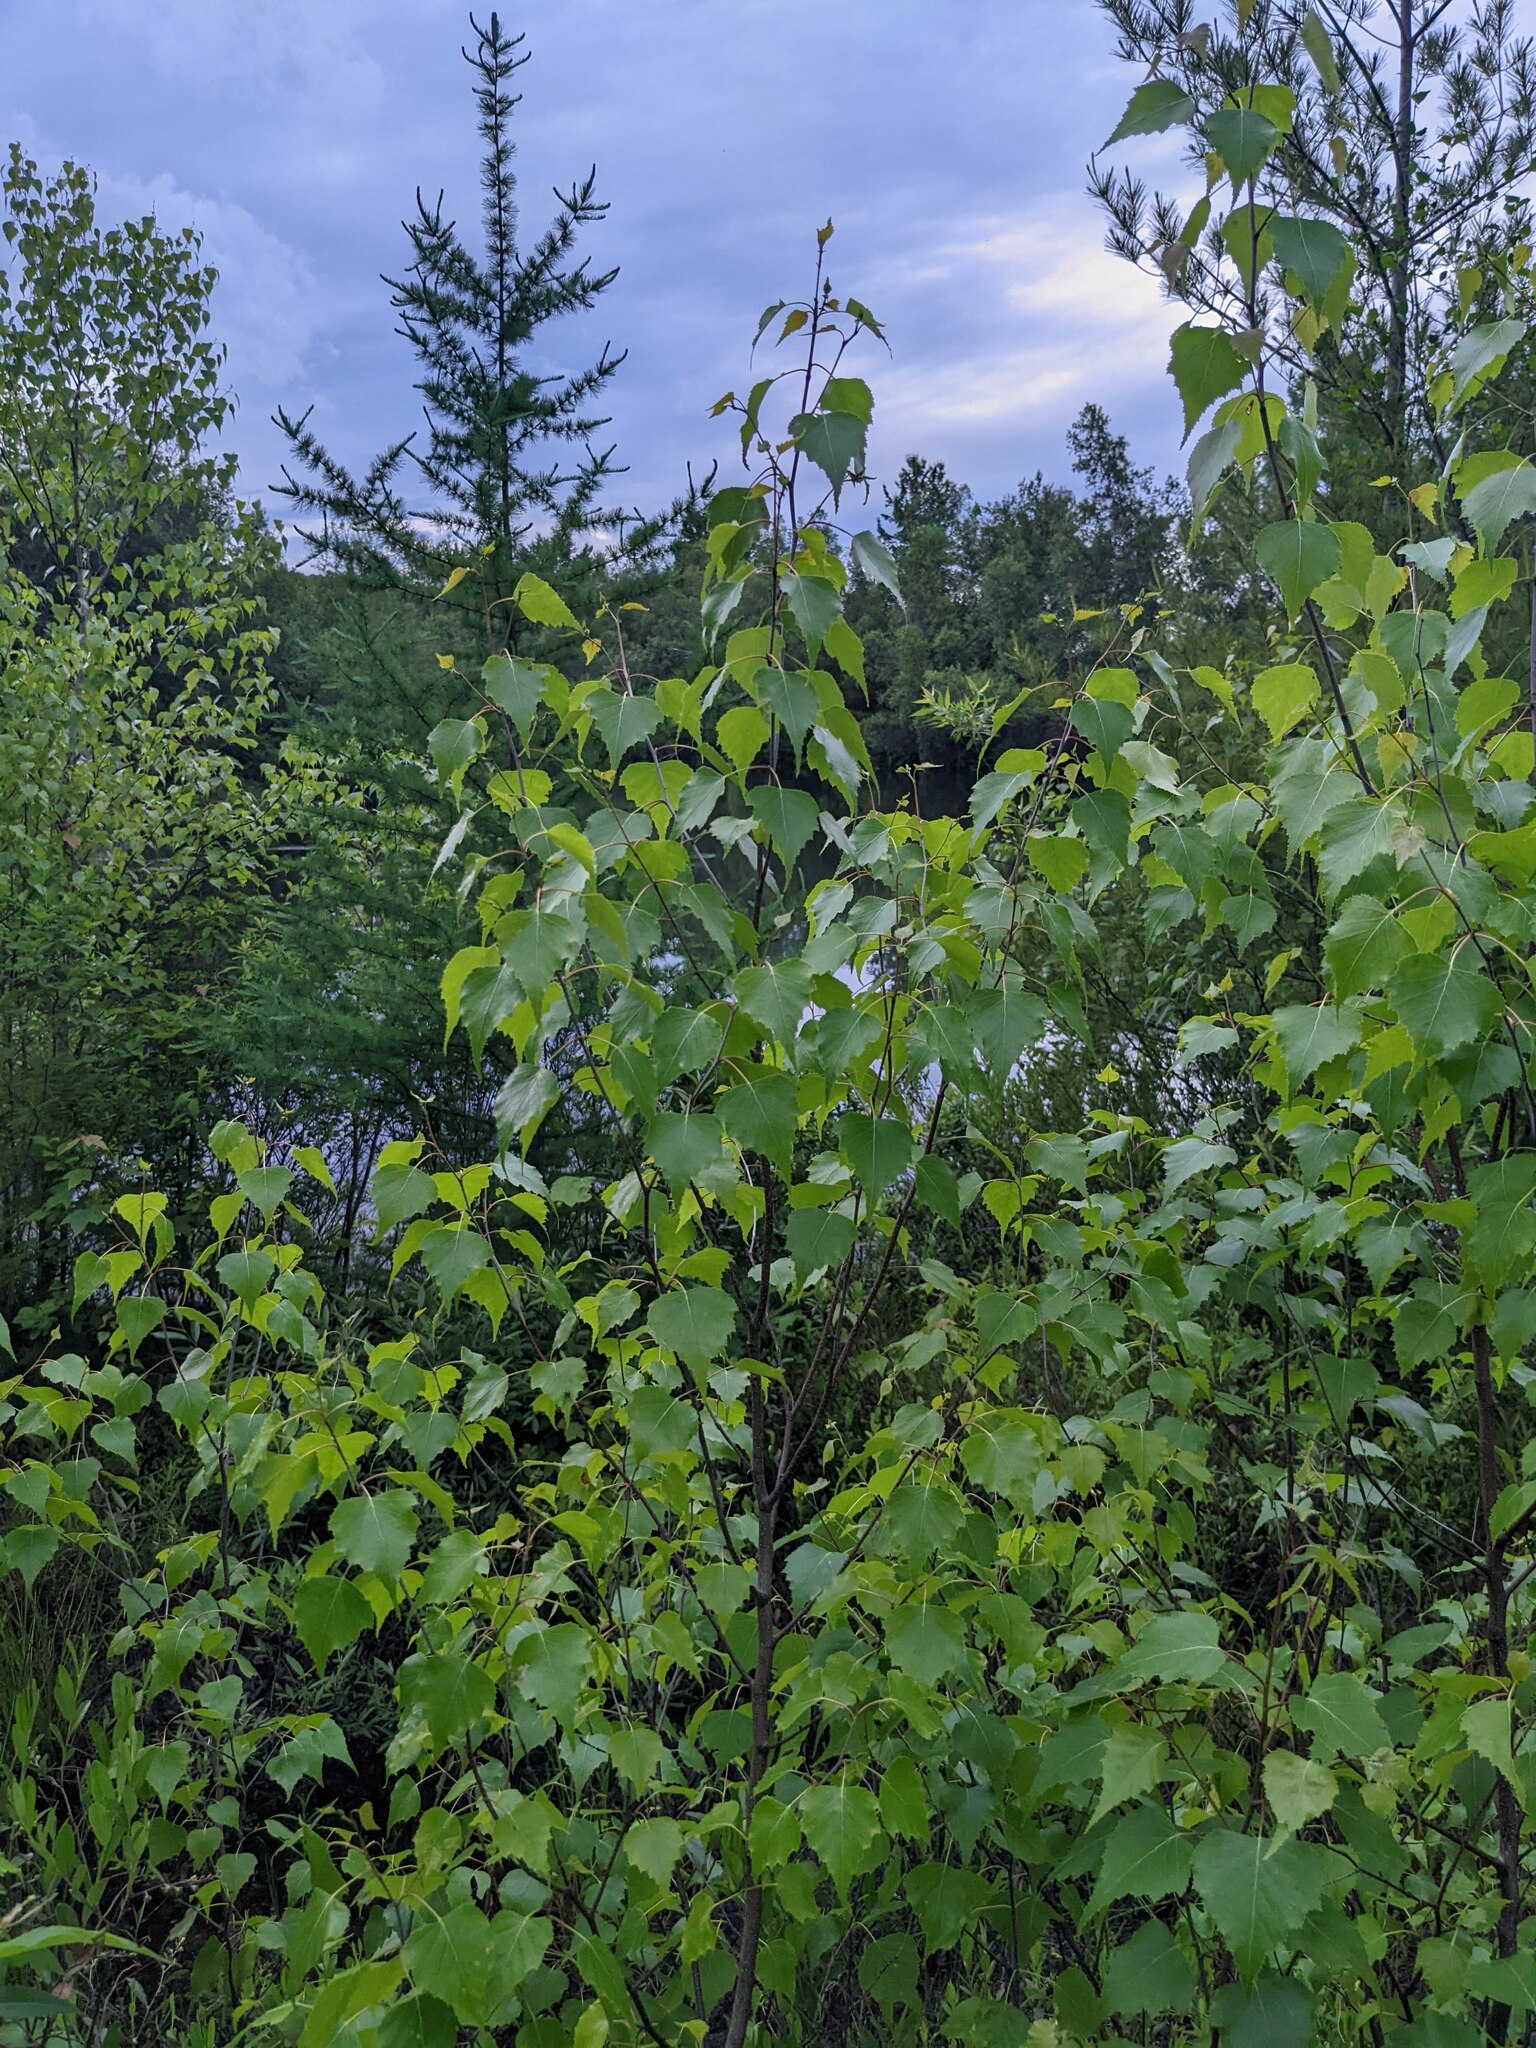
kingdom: Plantae
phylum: Tracheophyta
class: Magnoliopsida
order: Fagales
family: Betulaceae
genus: Betula
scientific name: Betula populifolia
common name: Fire birch
